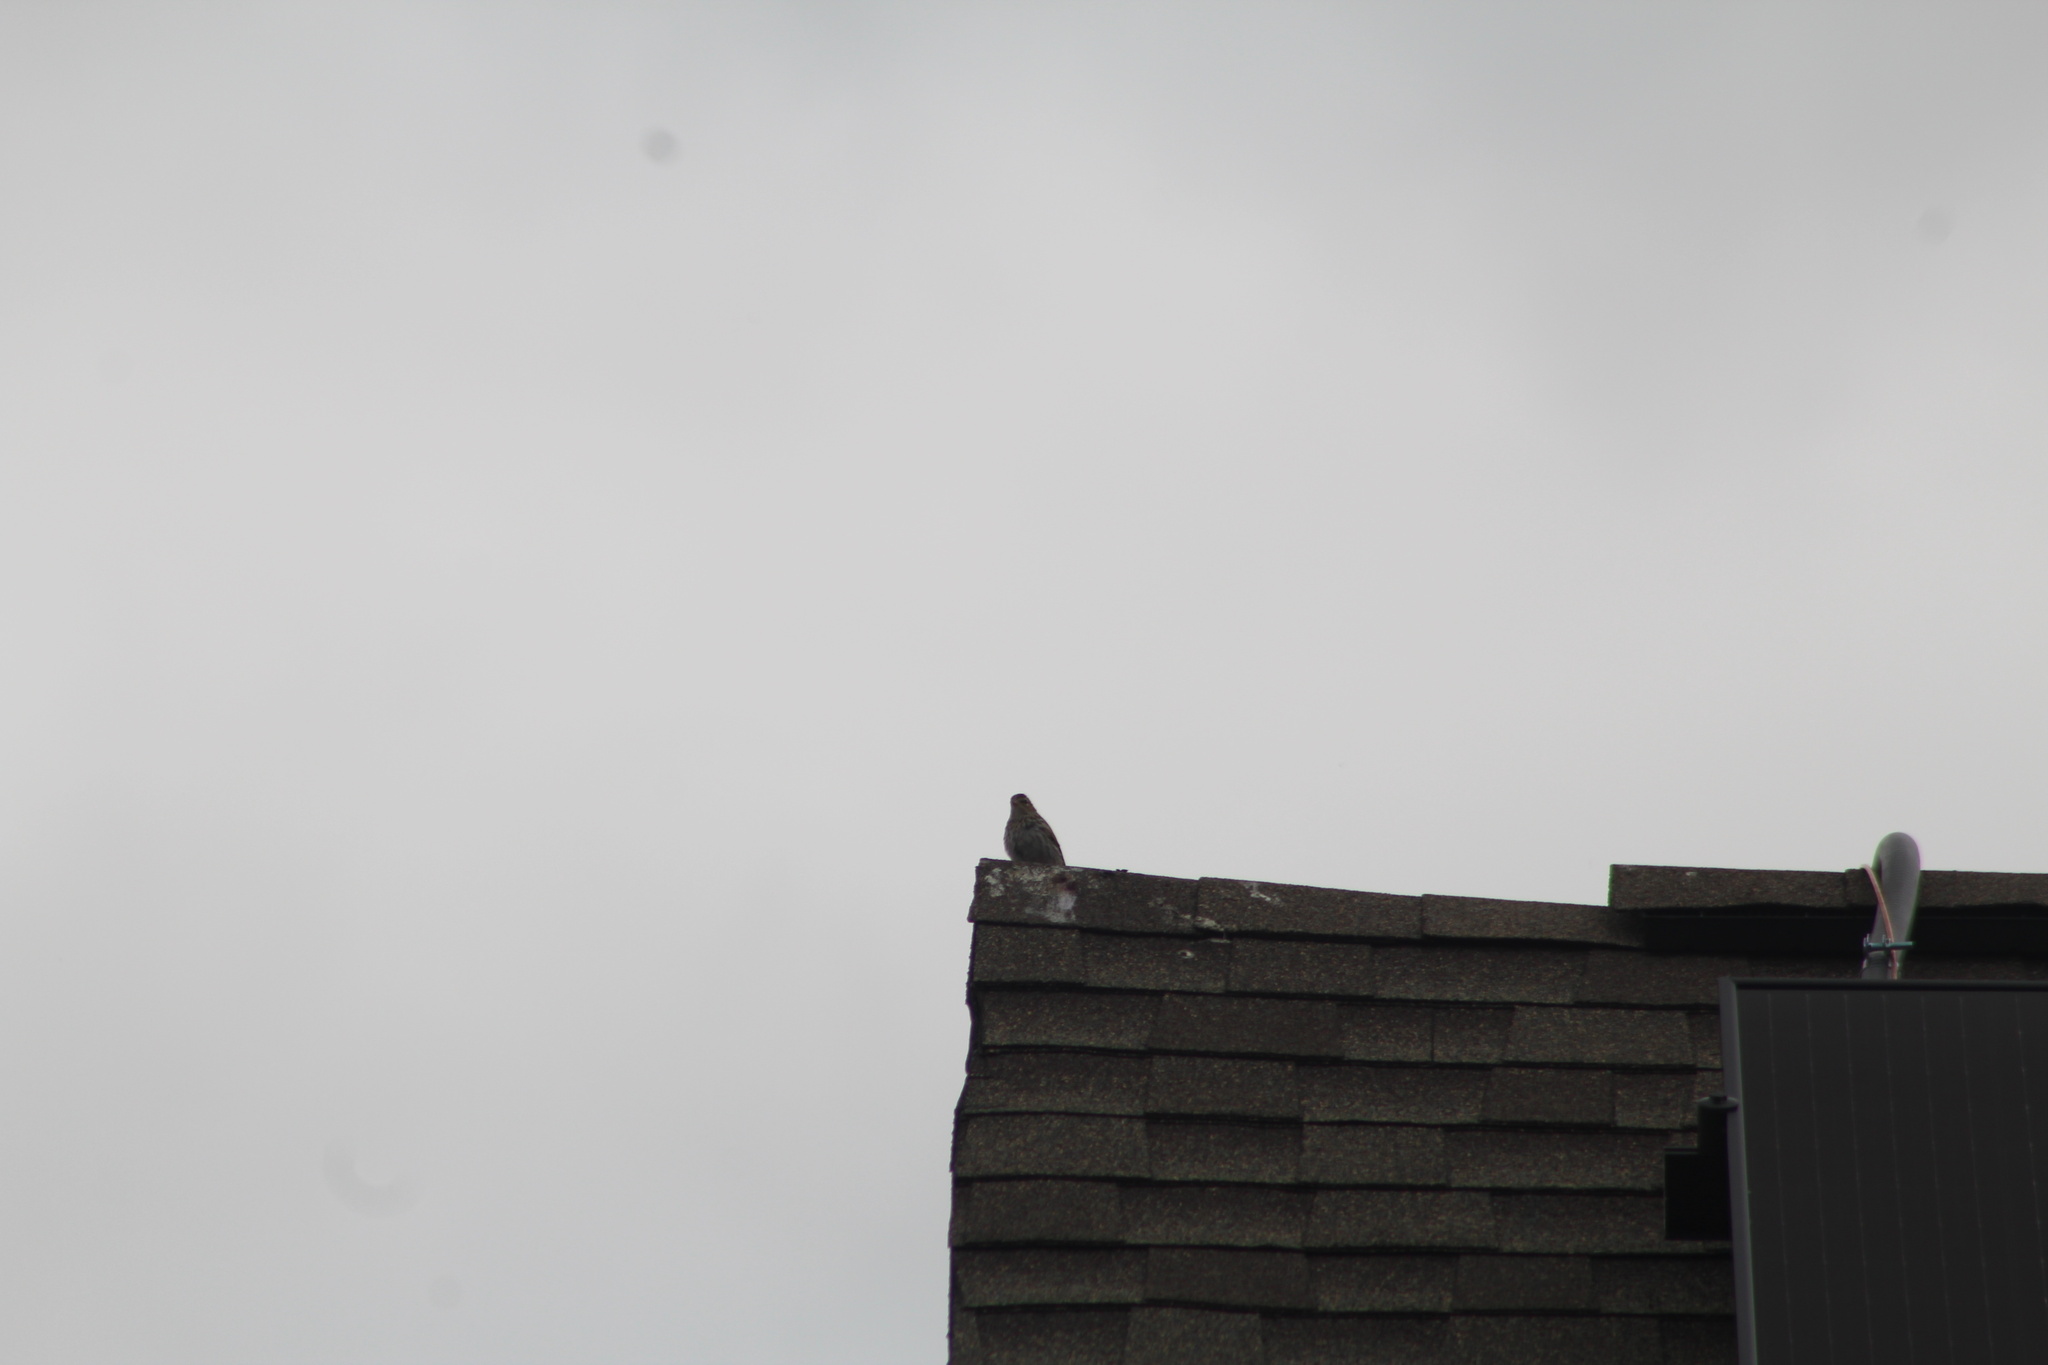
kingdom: Animalia
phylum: Chordata
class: Aves
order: Passeriformes
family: Passerellidae
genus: Spizella
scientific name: Spizella passerina
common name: Chipping sparrow
